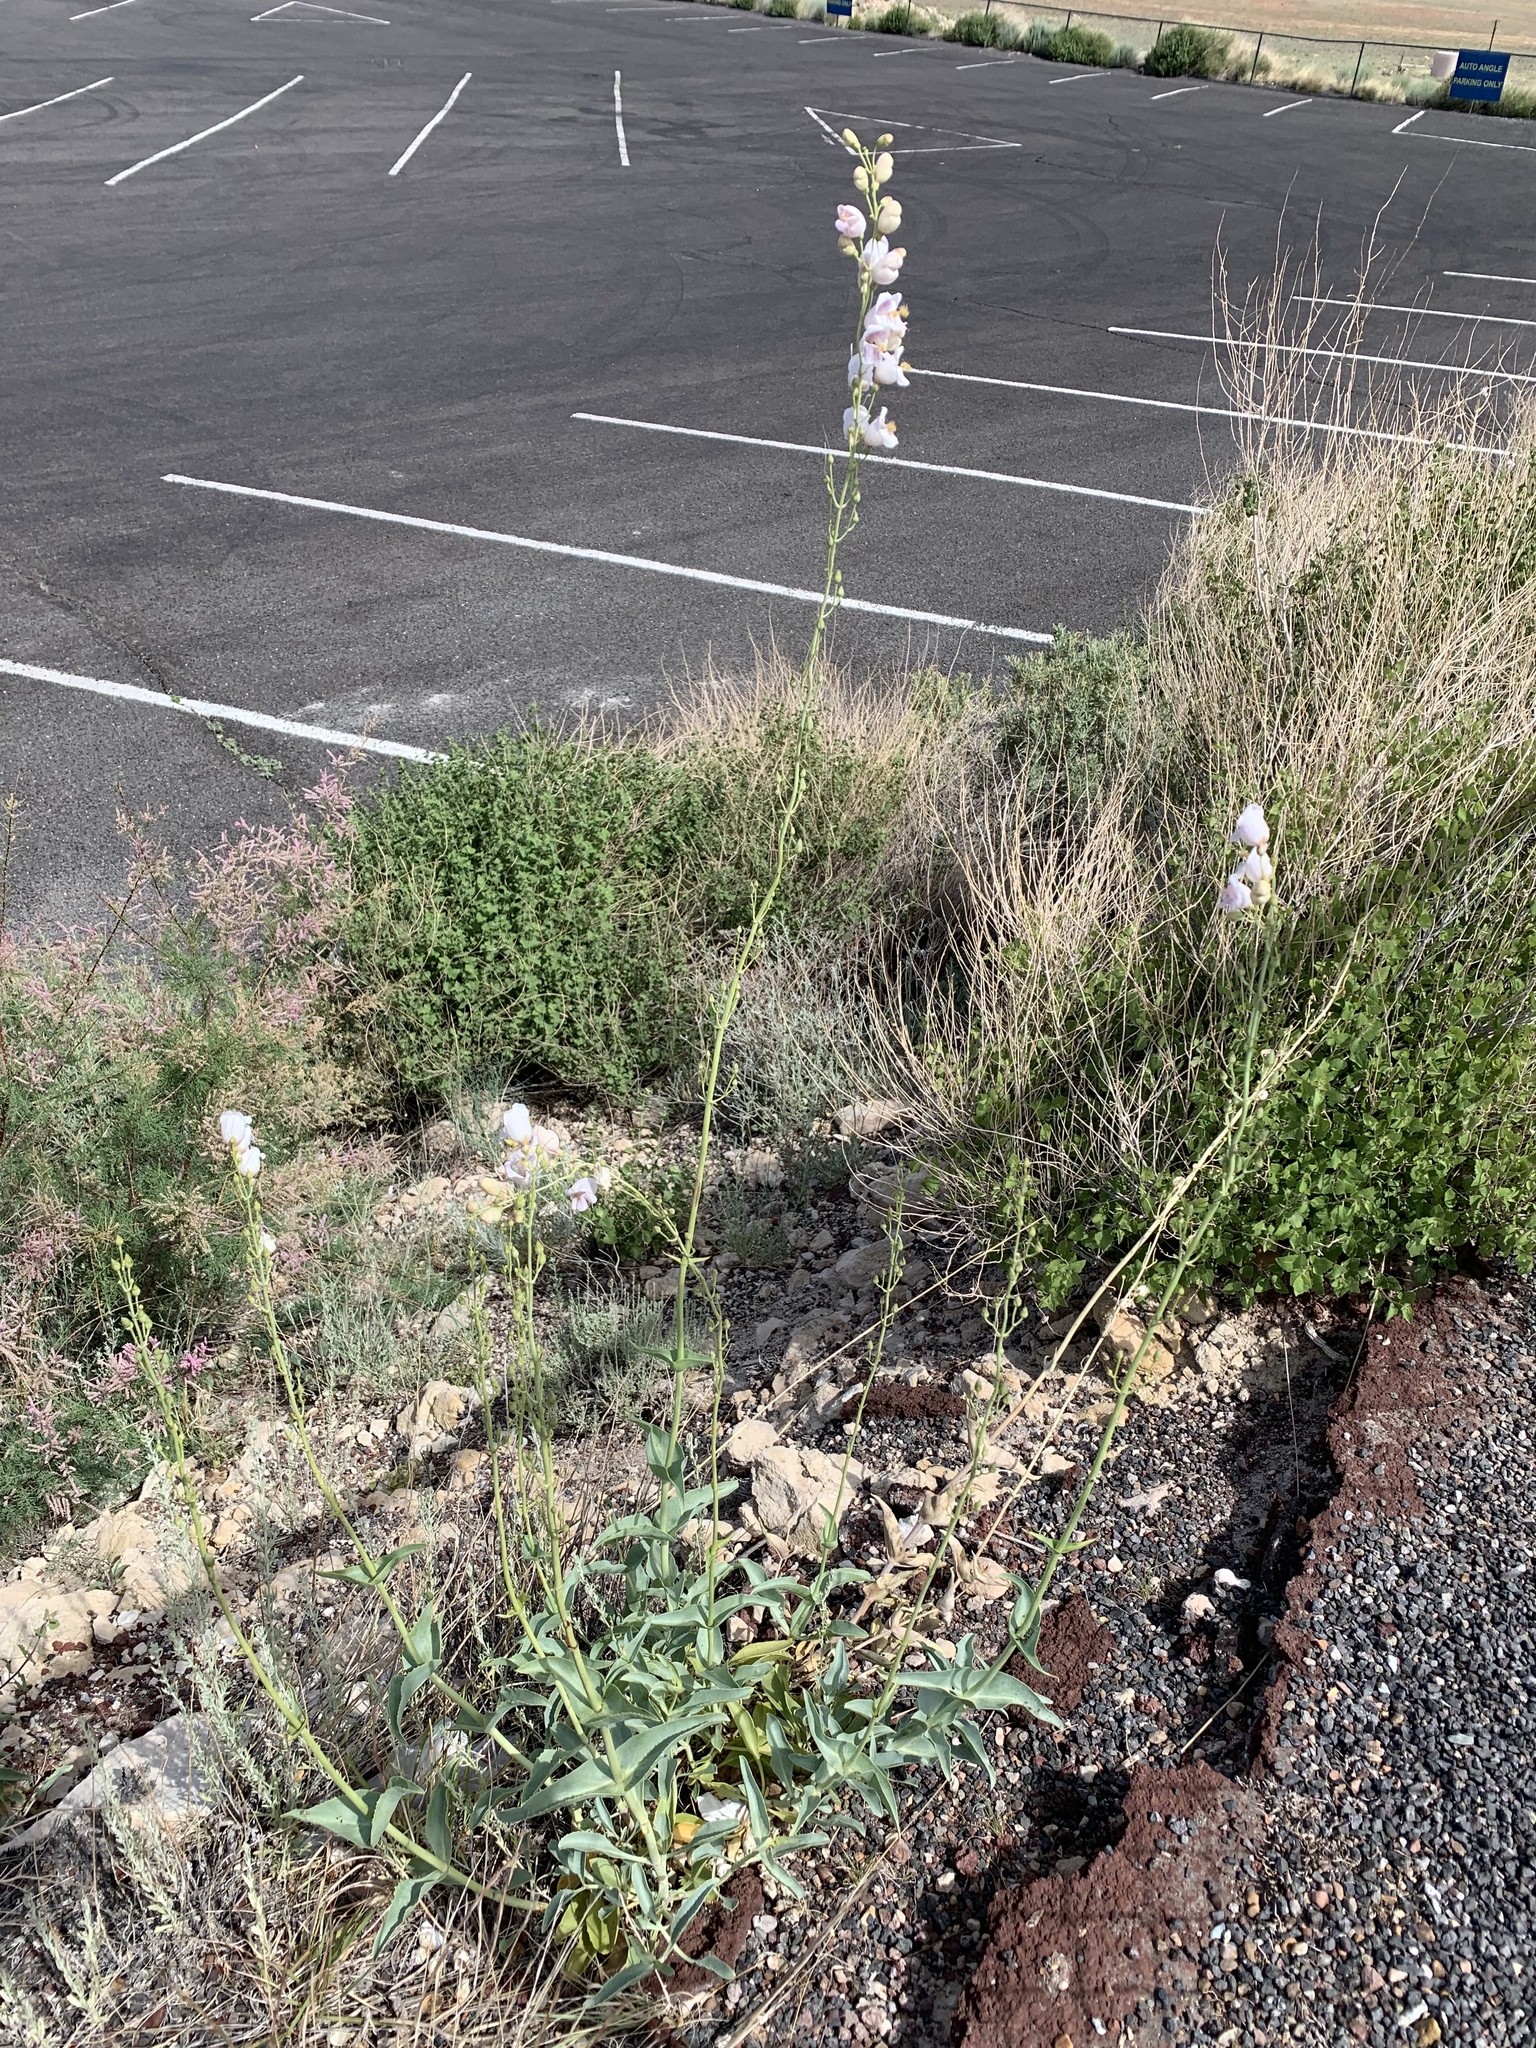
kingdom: Plantae
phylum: Tracheophyta
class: Magnoliopsida
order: Lamiales
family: Plantaginaceae
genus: Penstemon
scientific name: Penstemon palmeri
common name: Palmer penstemon
